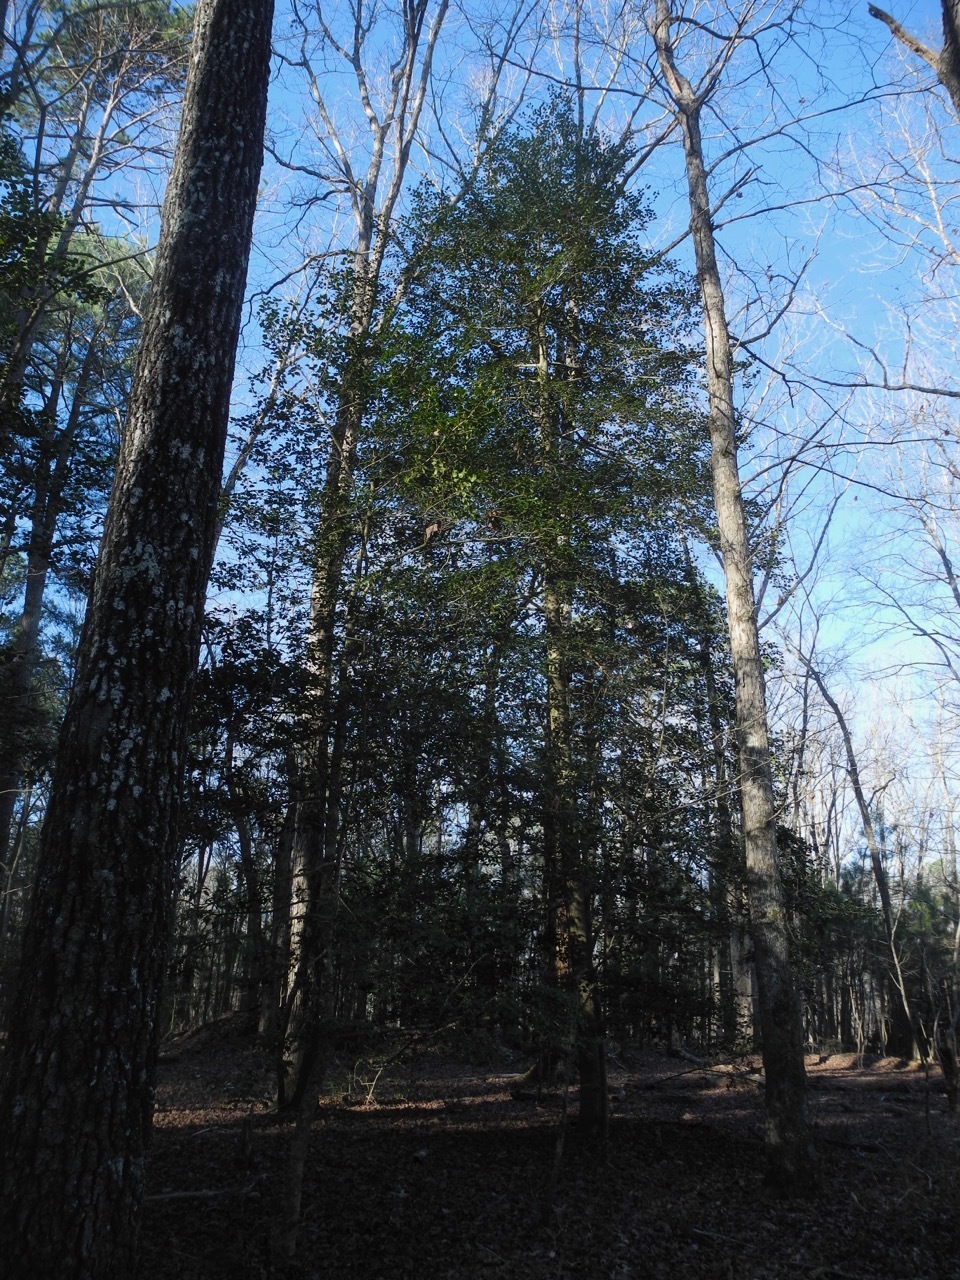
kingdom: Plantae
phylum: Tracheophyta
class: Magnoliopsida
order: Aquifoliales
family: Aquifoliaceae
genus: Ilex
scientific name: Ilex opaca
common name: American holly
